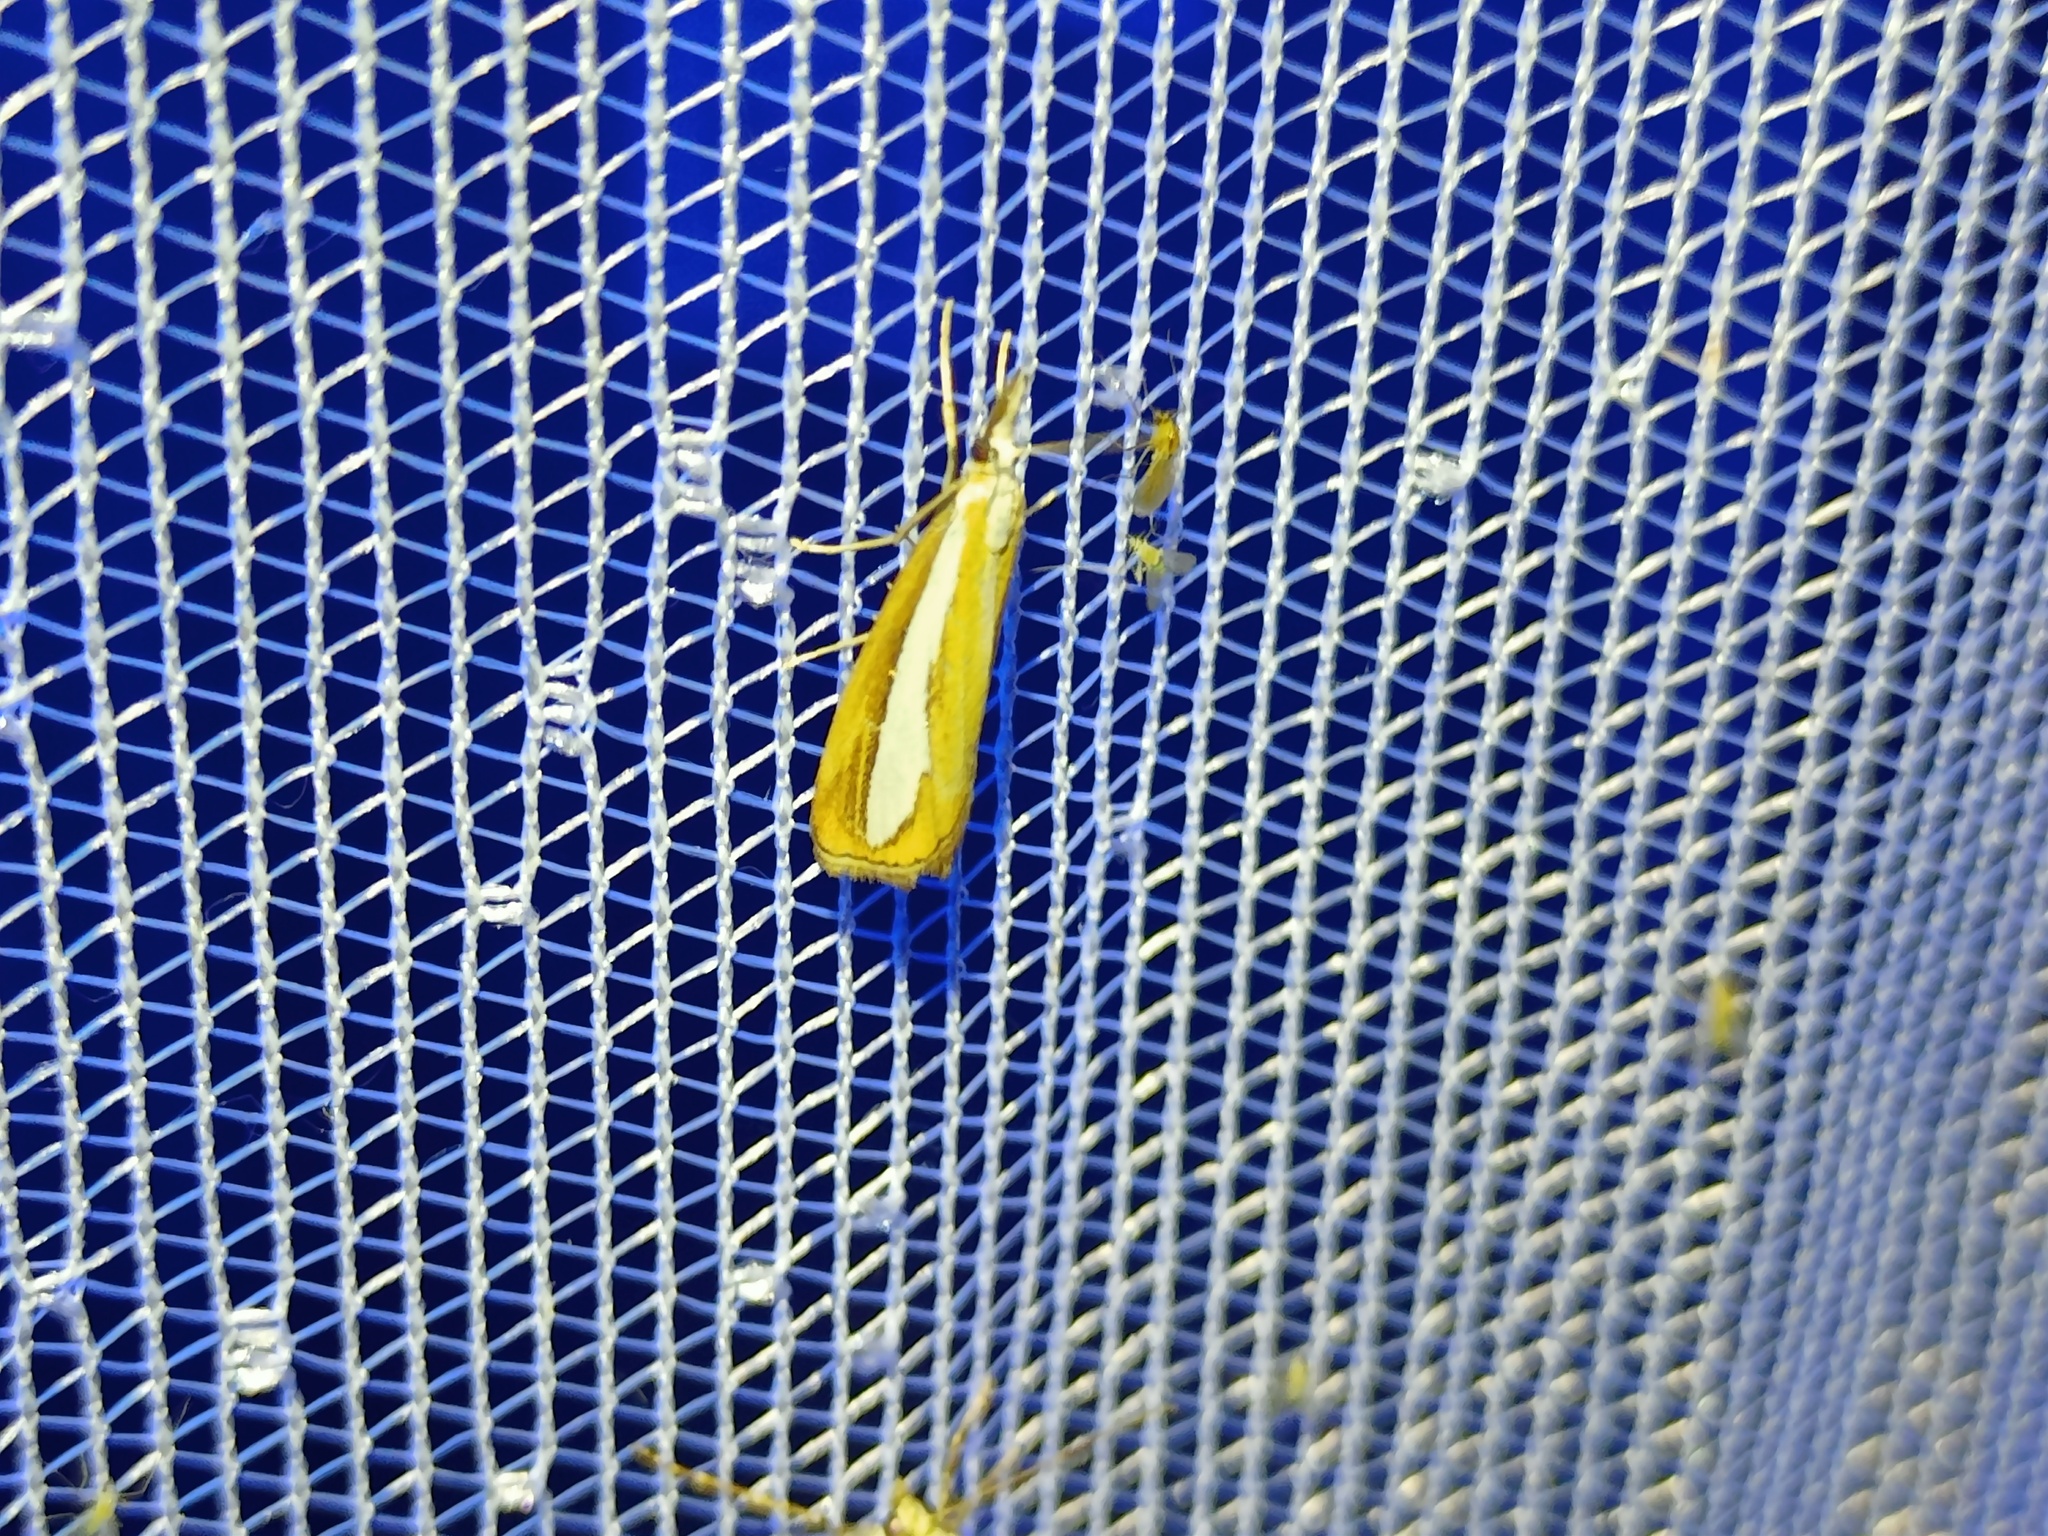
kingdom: Animalia
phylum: Arthropoda
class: Insecta
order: Lepidoptera
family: Crambidae
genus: Catoptria
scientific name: Catoptria margaritellus
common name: Pearl-band grass veneer
